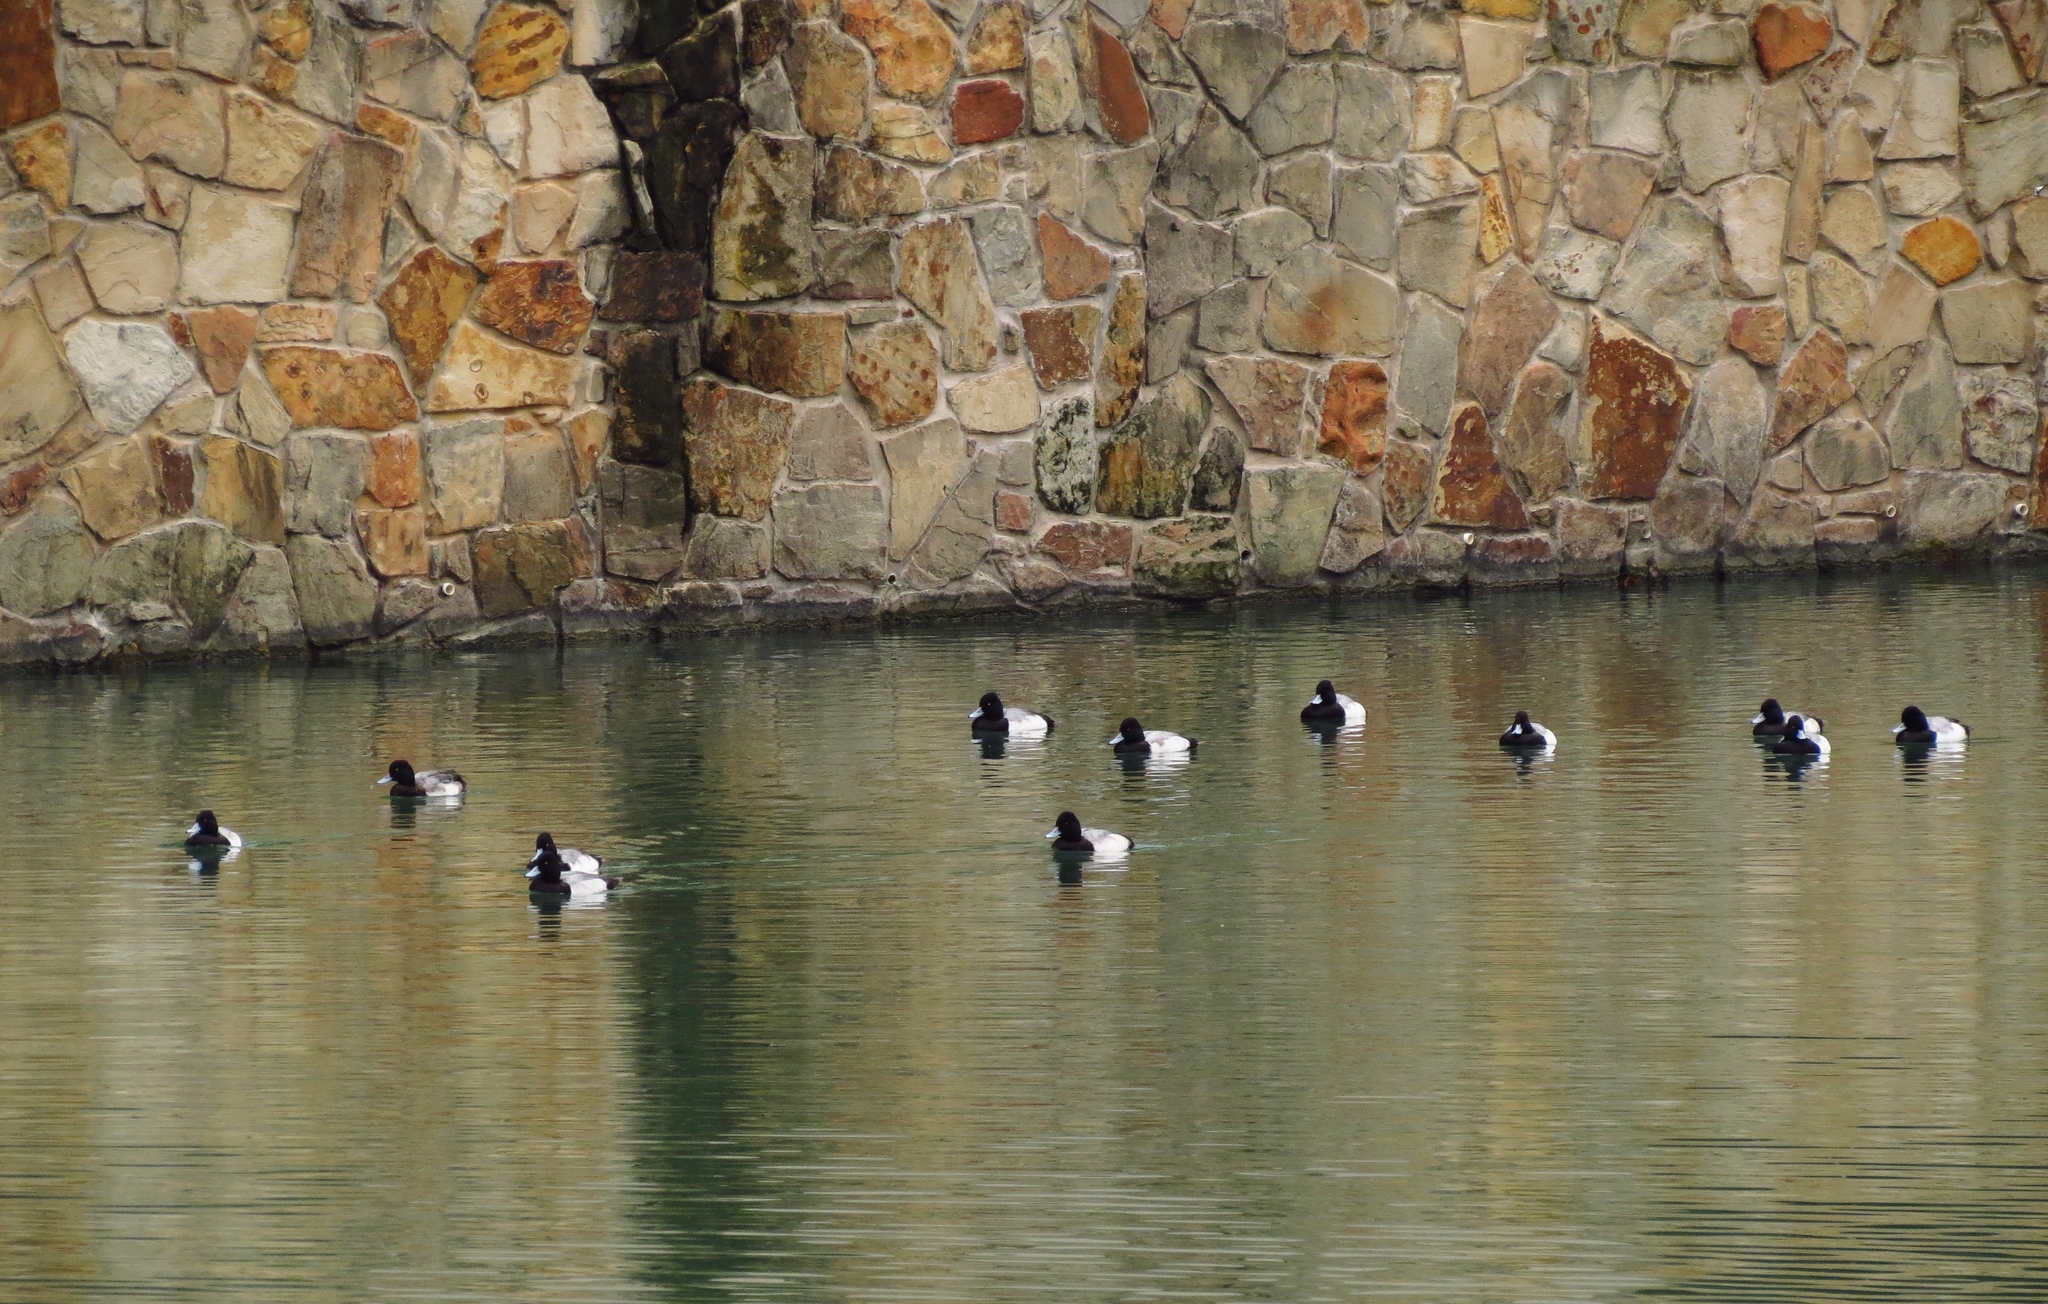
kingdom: Animalia
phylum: Chordata
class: Aves
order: Anseriformes
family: Anatidae
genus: Aythya
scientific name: Aythya affinis
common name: Lesser scaup
